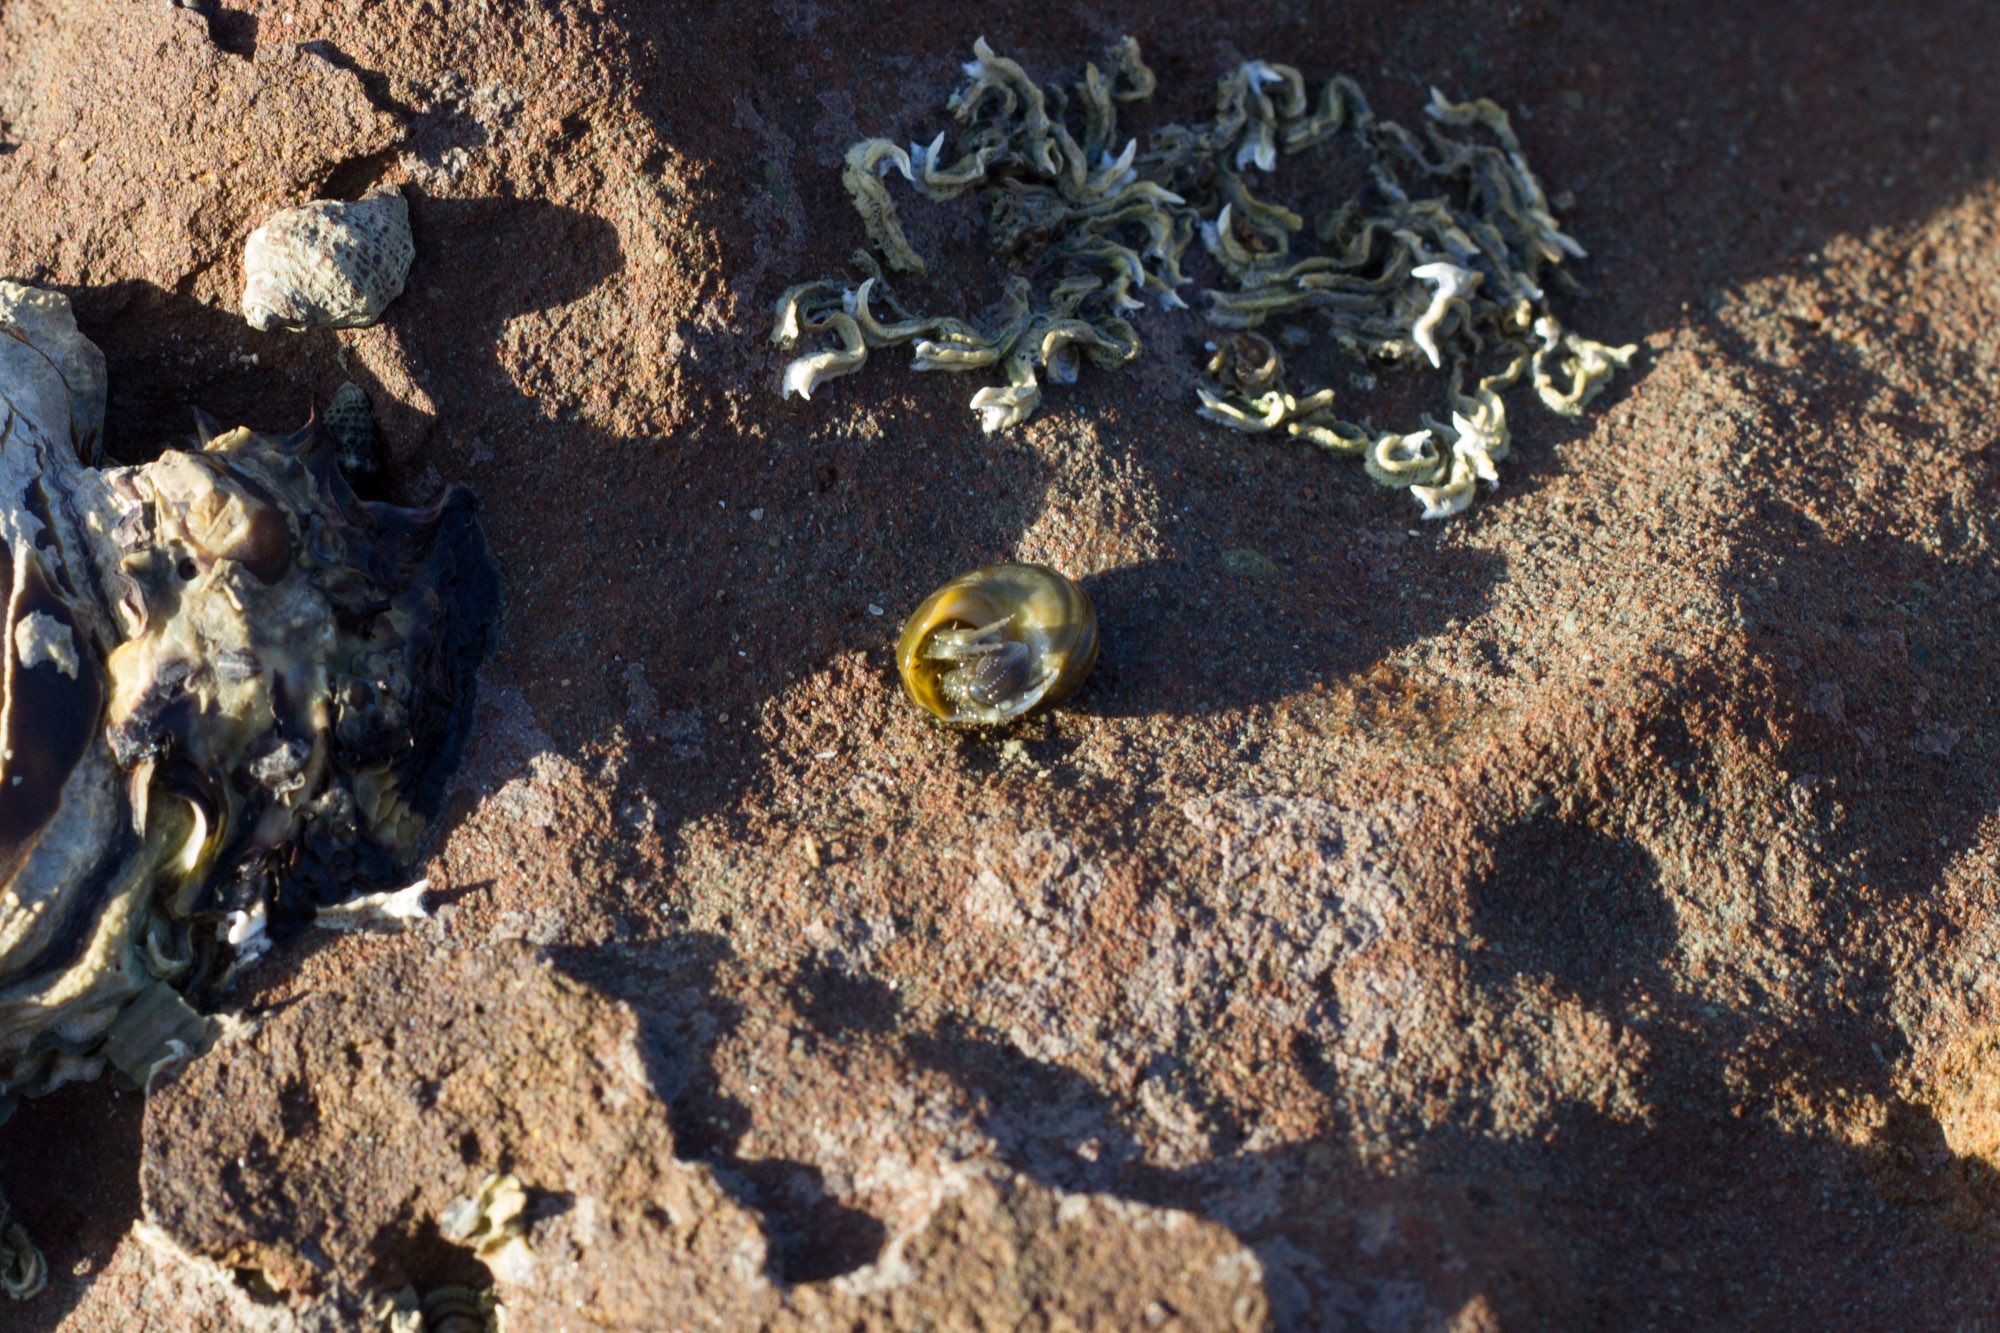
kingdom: Animalia
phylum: Arthropoda
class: Malacostraca
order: Decapoda
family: Paguridae
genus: Pagurus
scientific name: Pagurus novizealandiae
